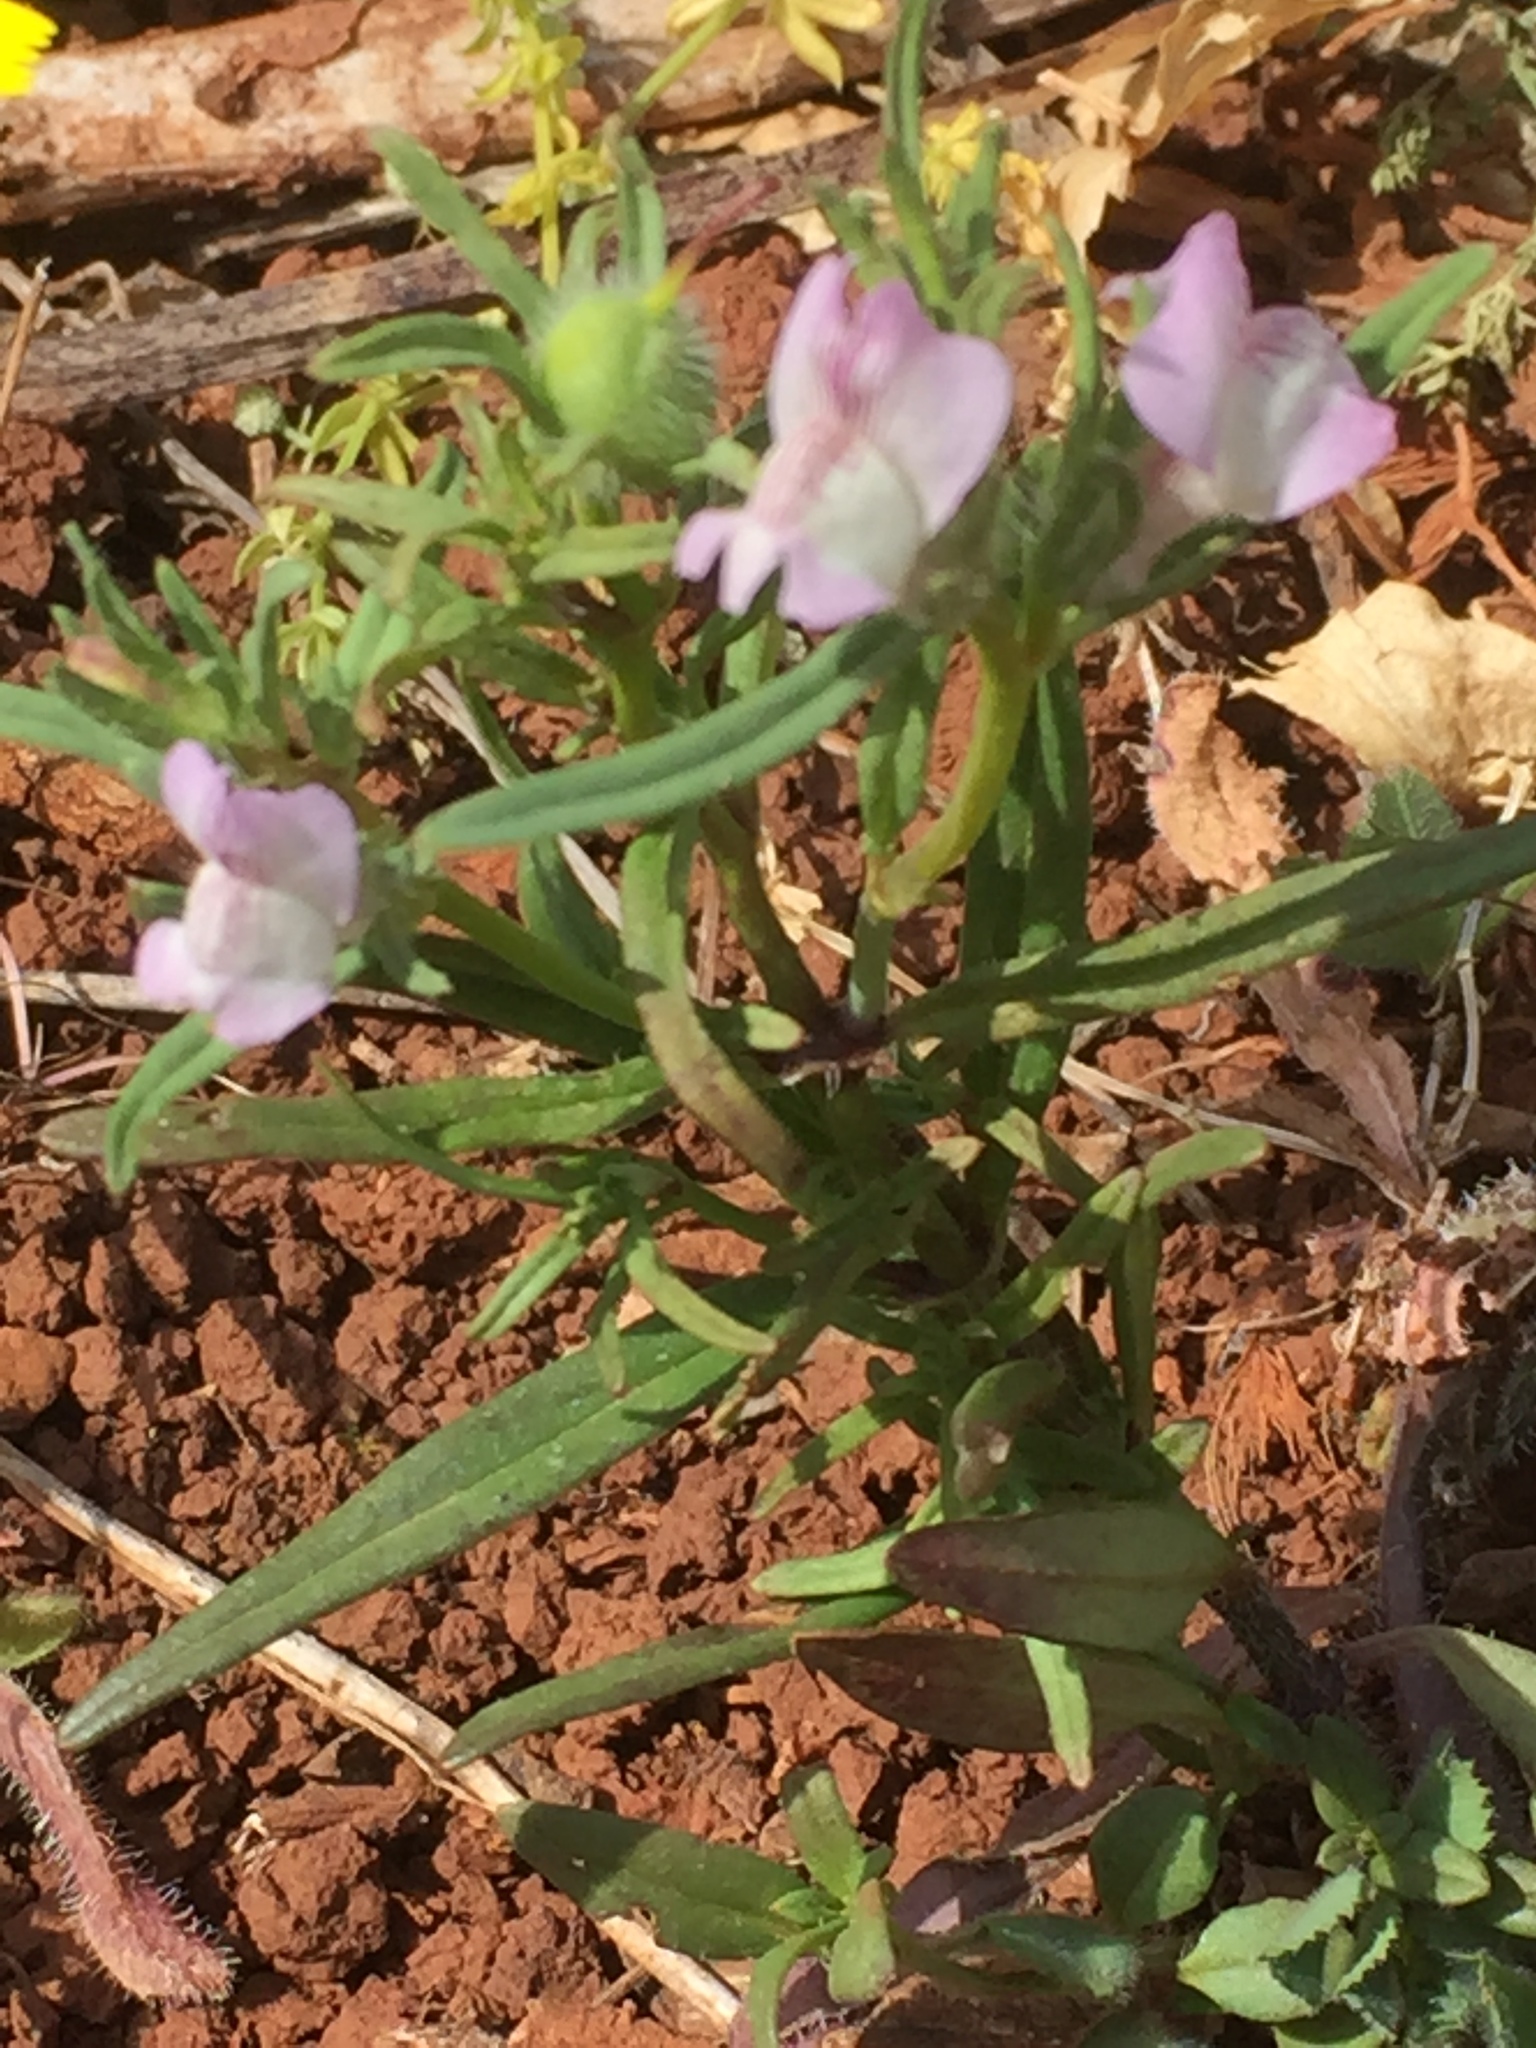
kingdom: Plantae
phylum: Tracheophyta
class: Magnoliopsida
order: Lamiales
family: Plantaginaceae
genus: Misopates
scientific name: Misopates orontium
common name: Weasel's-snout
